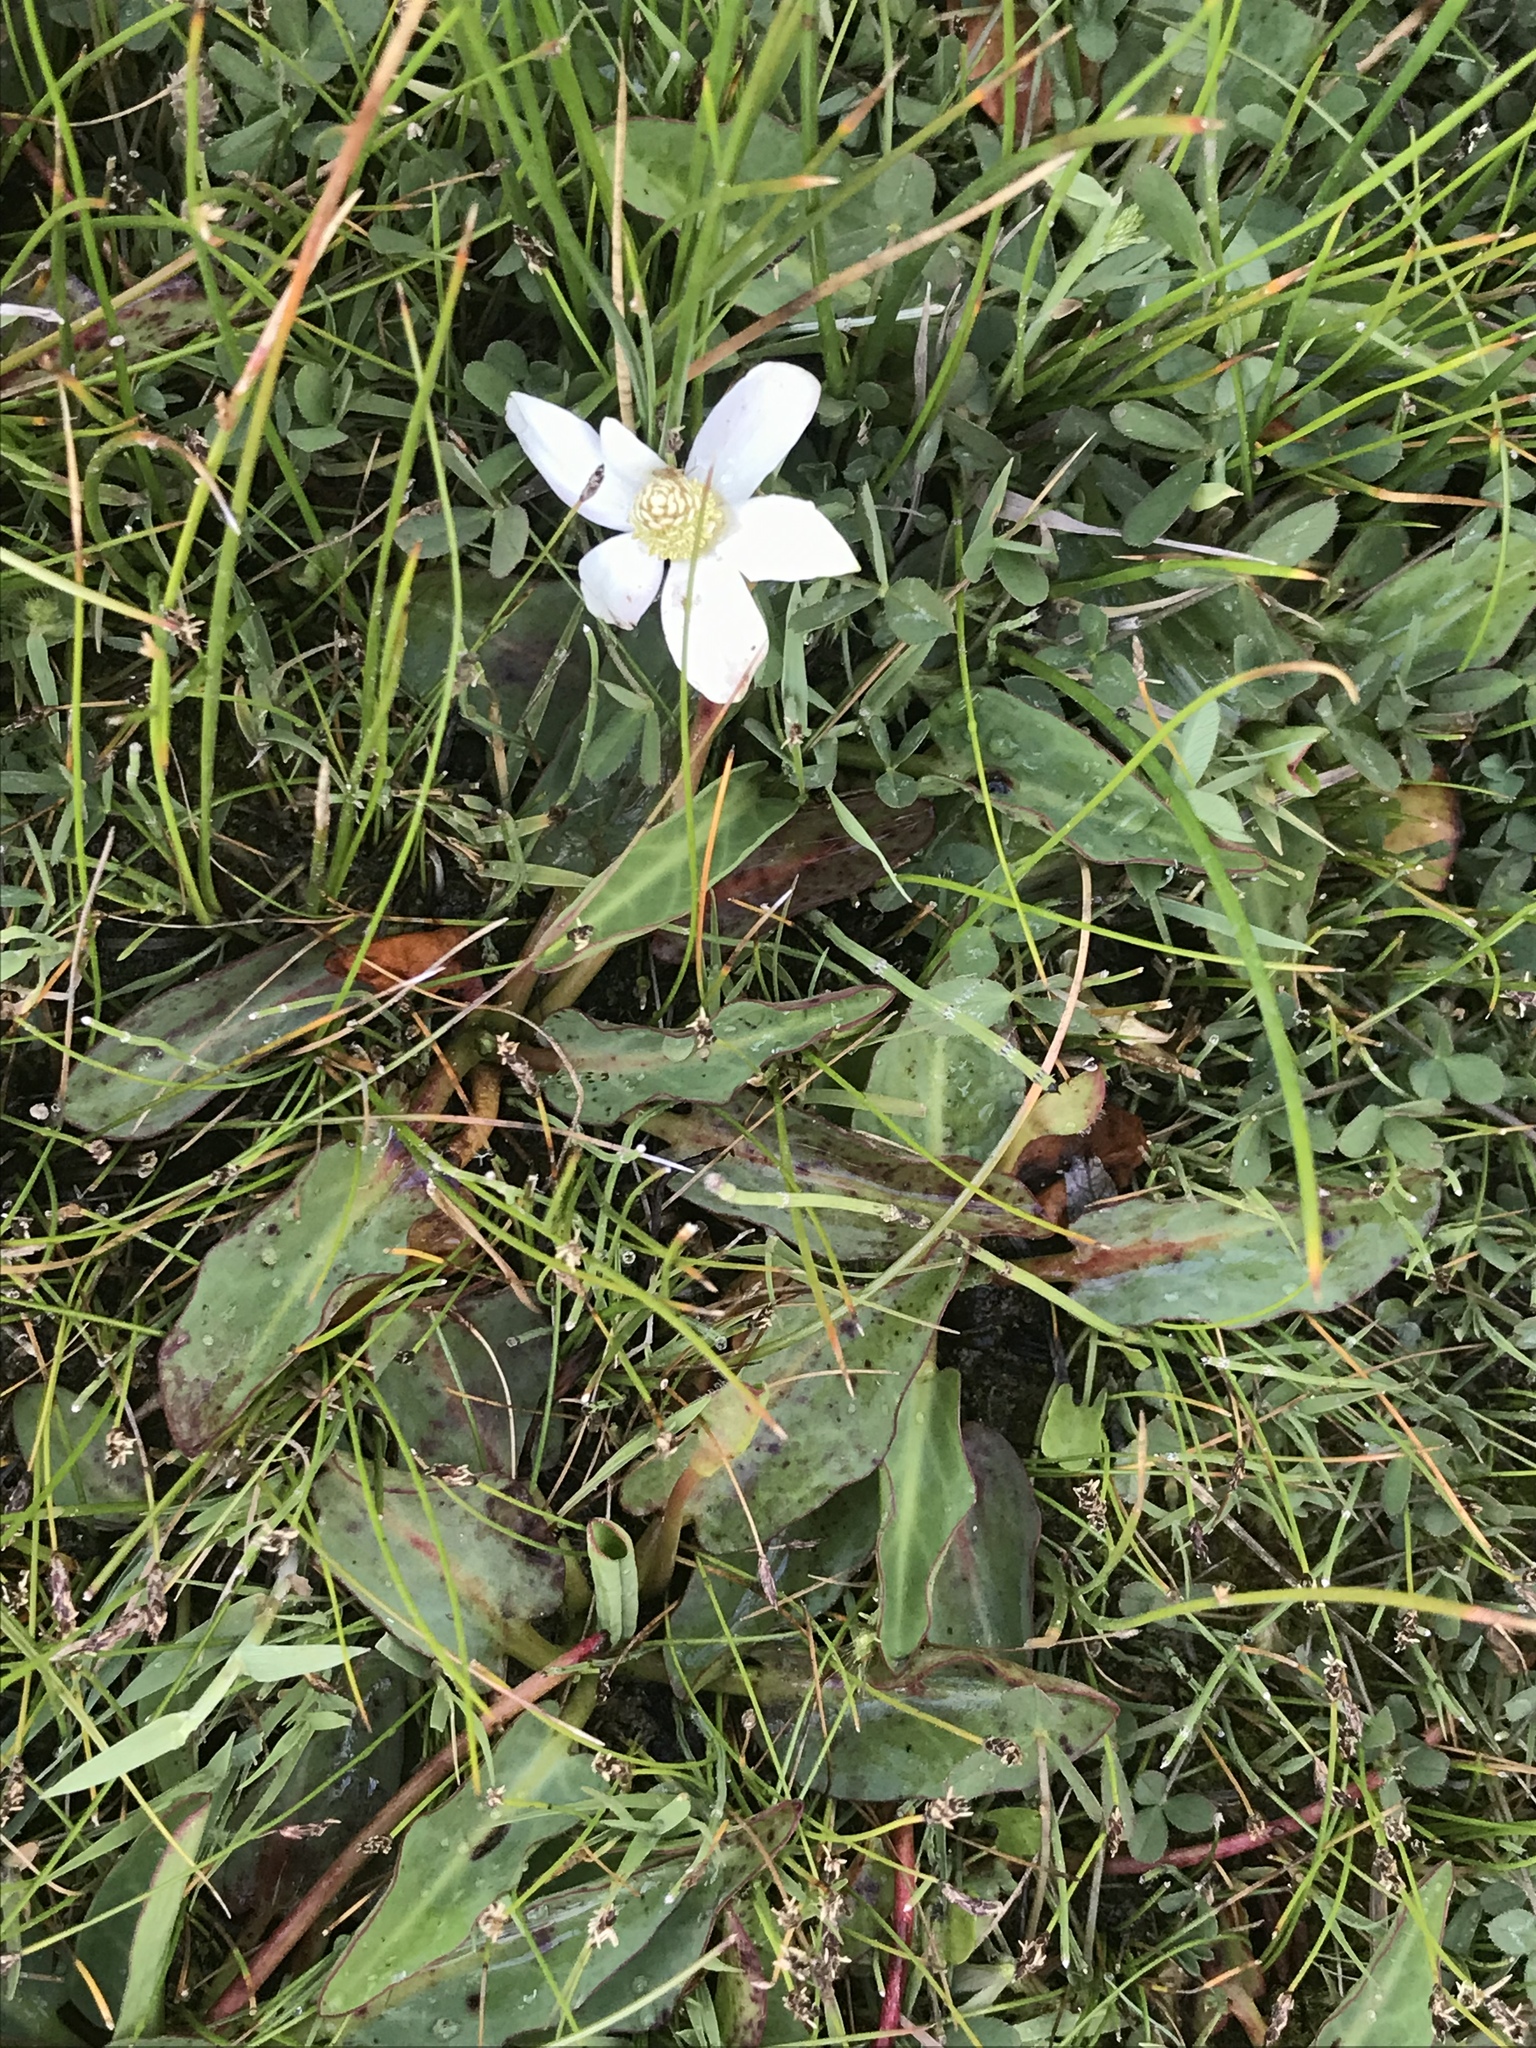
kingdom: Plantae
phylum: Tracheophyta
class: Magnoliopsida
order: Piperales
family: Saururaceae
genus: Anemopsis
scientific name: Anemopsis californica
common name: Apache-beads
